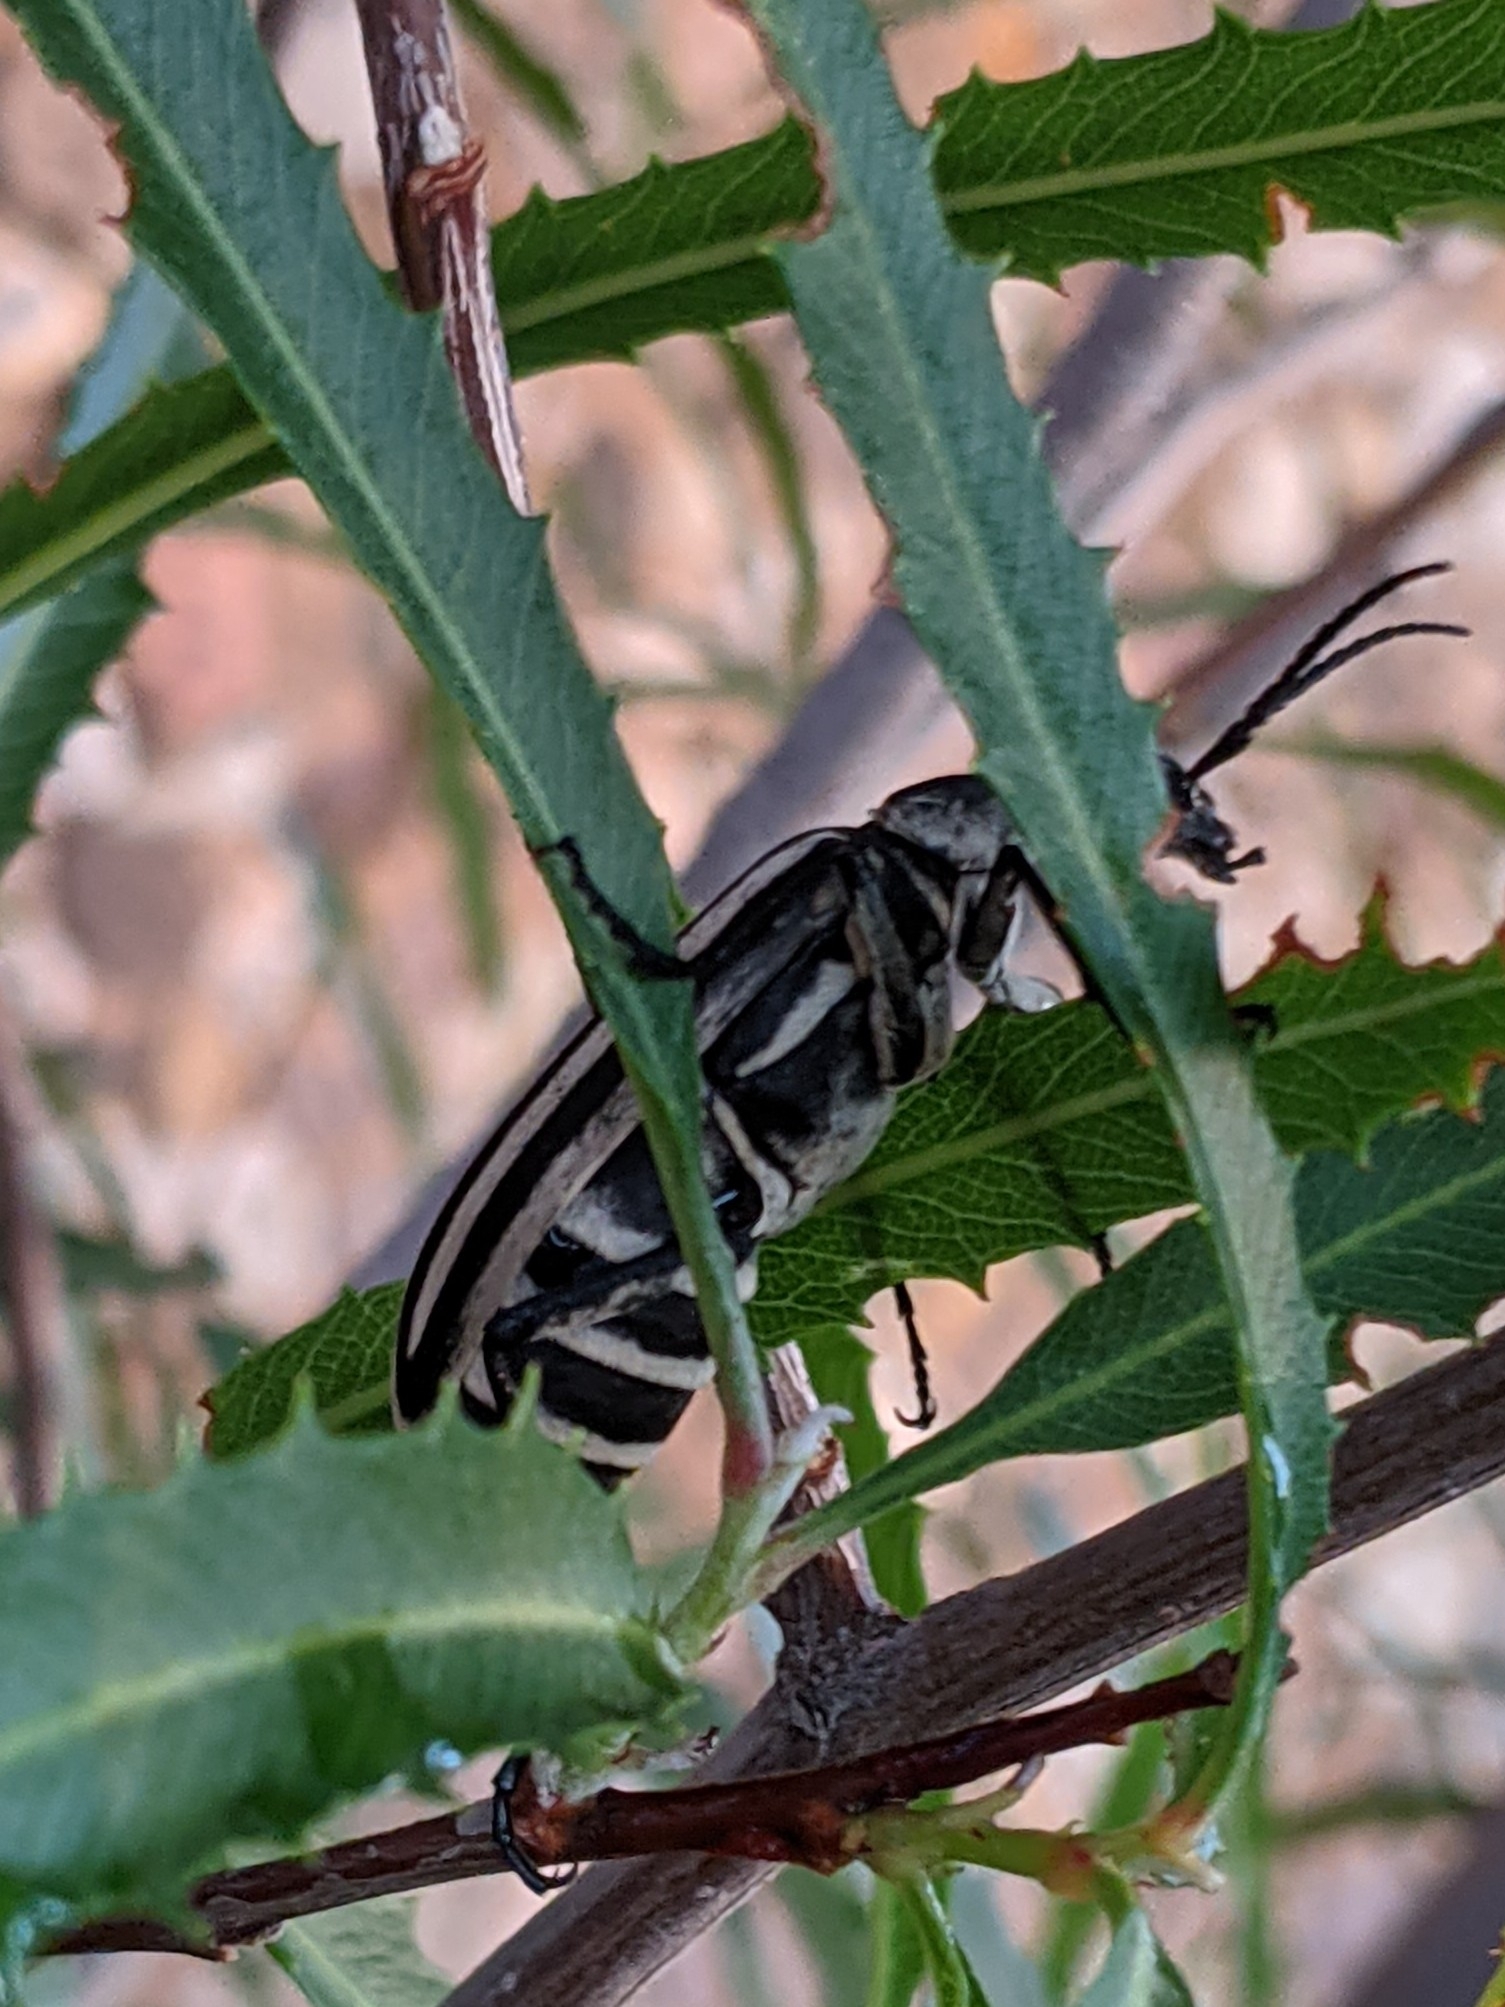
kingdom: Animalia
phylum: Arthropoda
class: Insecta
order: Coleoptera
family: Meloidae
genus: Epicauta
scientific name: Epicauta atrivittata
